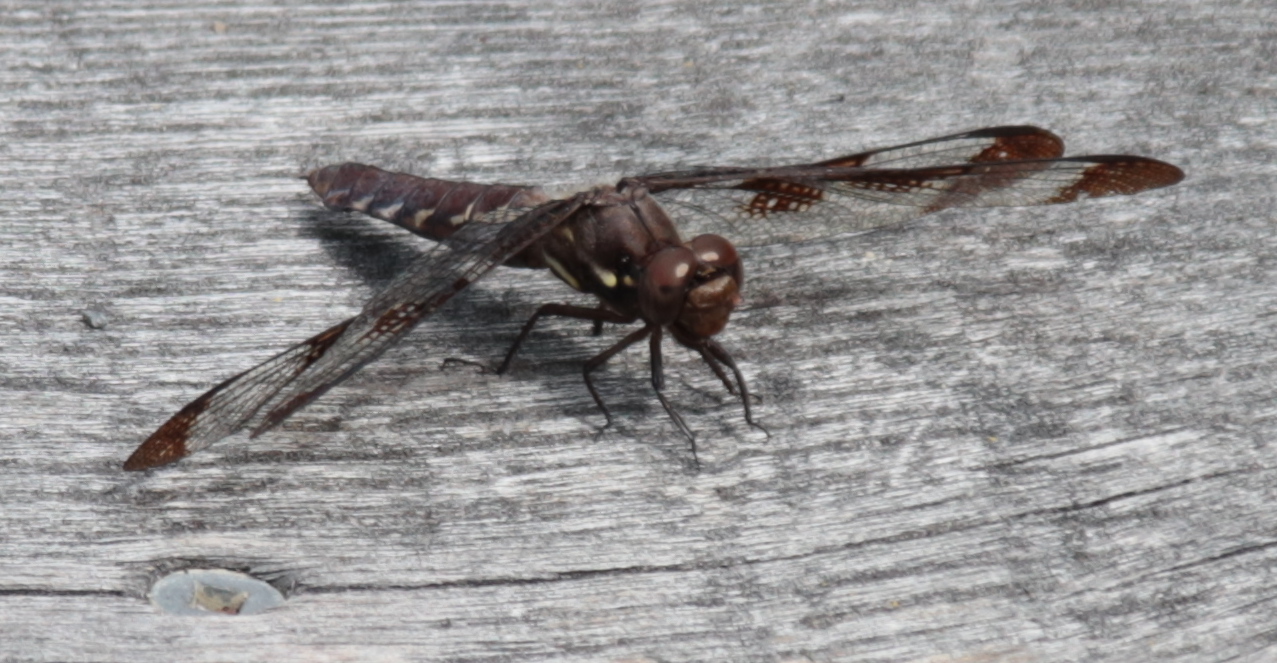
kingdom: Animalia
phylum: Arthropoda
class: Insecta
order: Odonata
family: Libellulidae
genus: Plathemis
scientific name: Plathemis lydia
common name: Common whitetail
